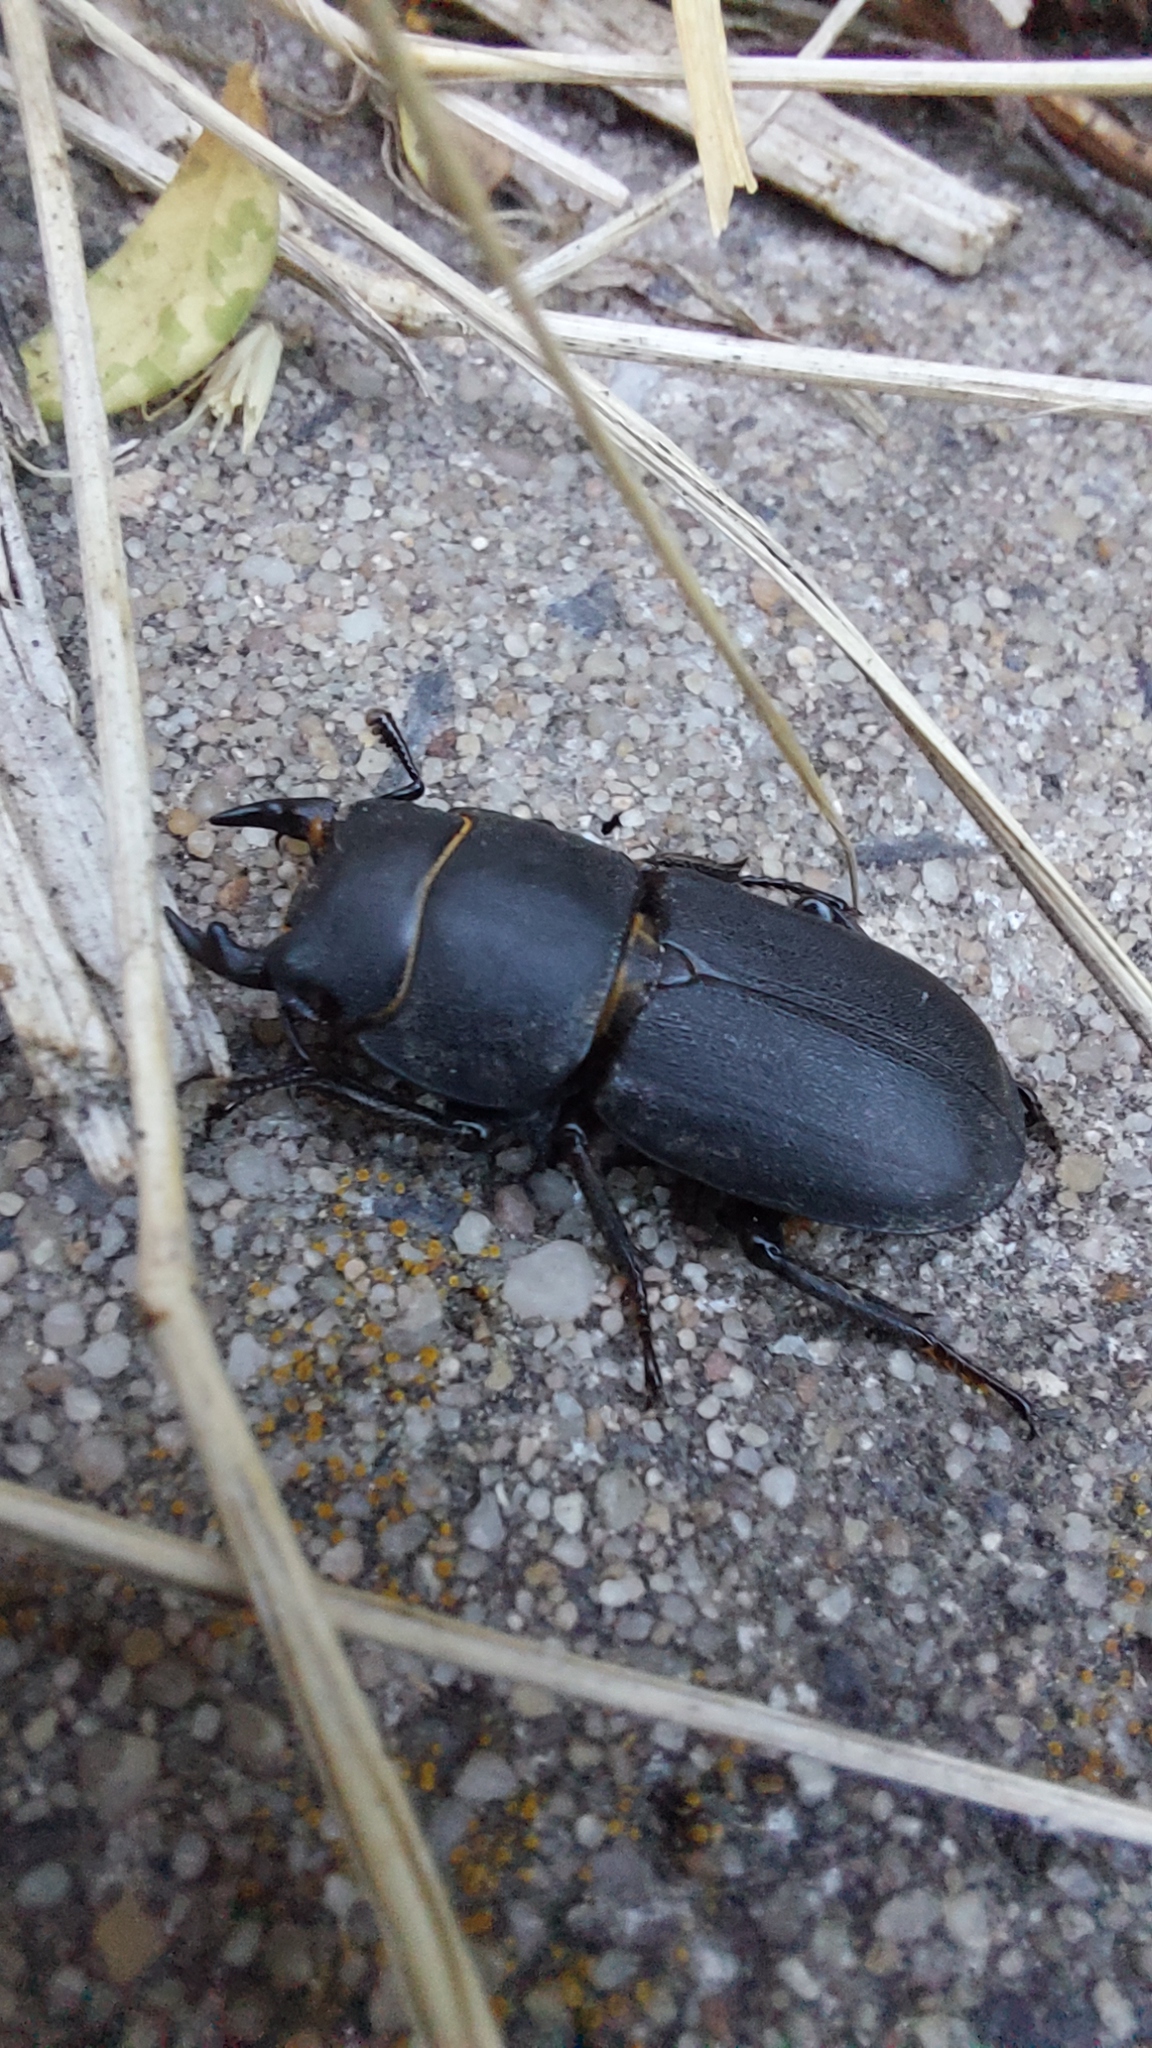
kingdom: Animalia
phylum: Arthropoda
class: Insecta
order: Coleoptera
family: Lucanidae
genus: Dorcus
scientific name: Dorcus parallelipipedus
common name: Lesser stag beetle
